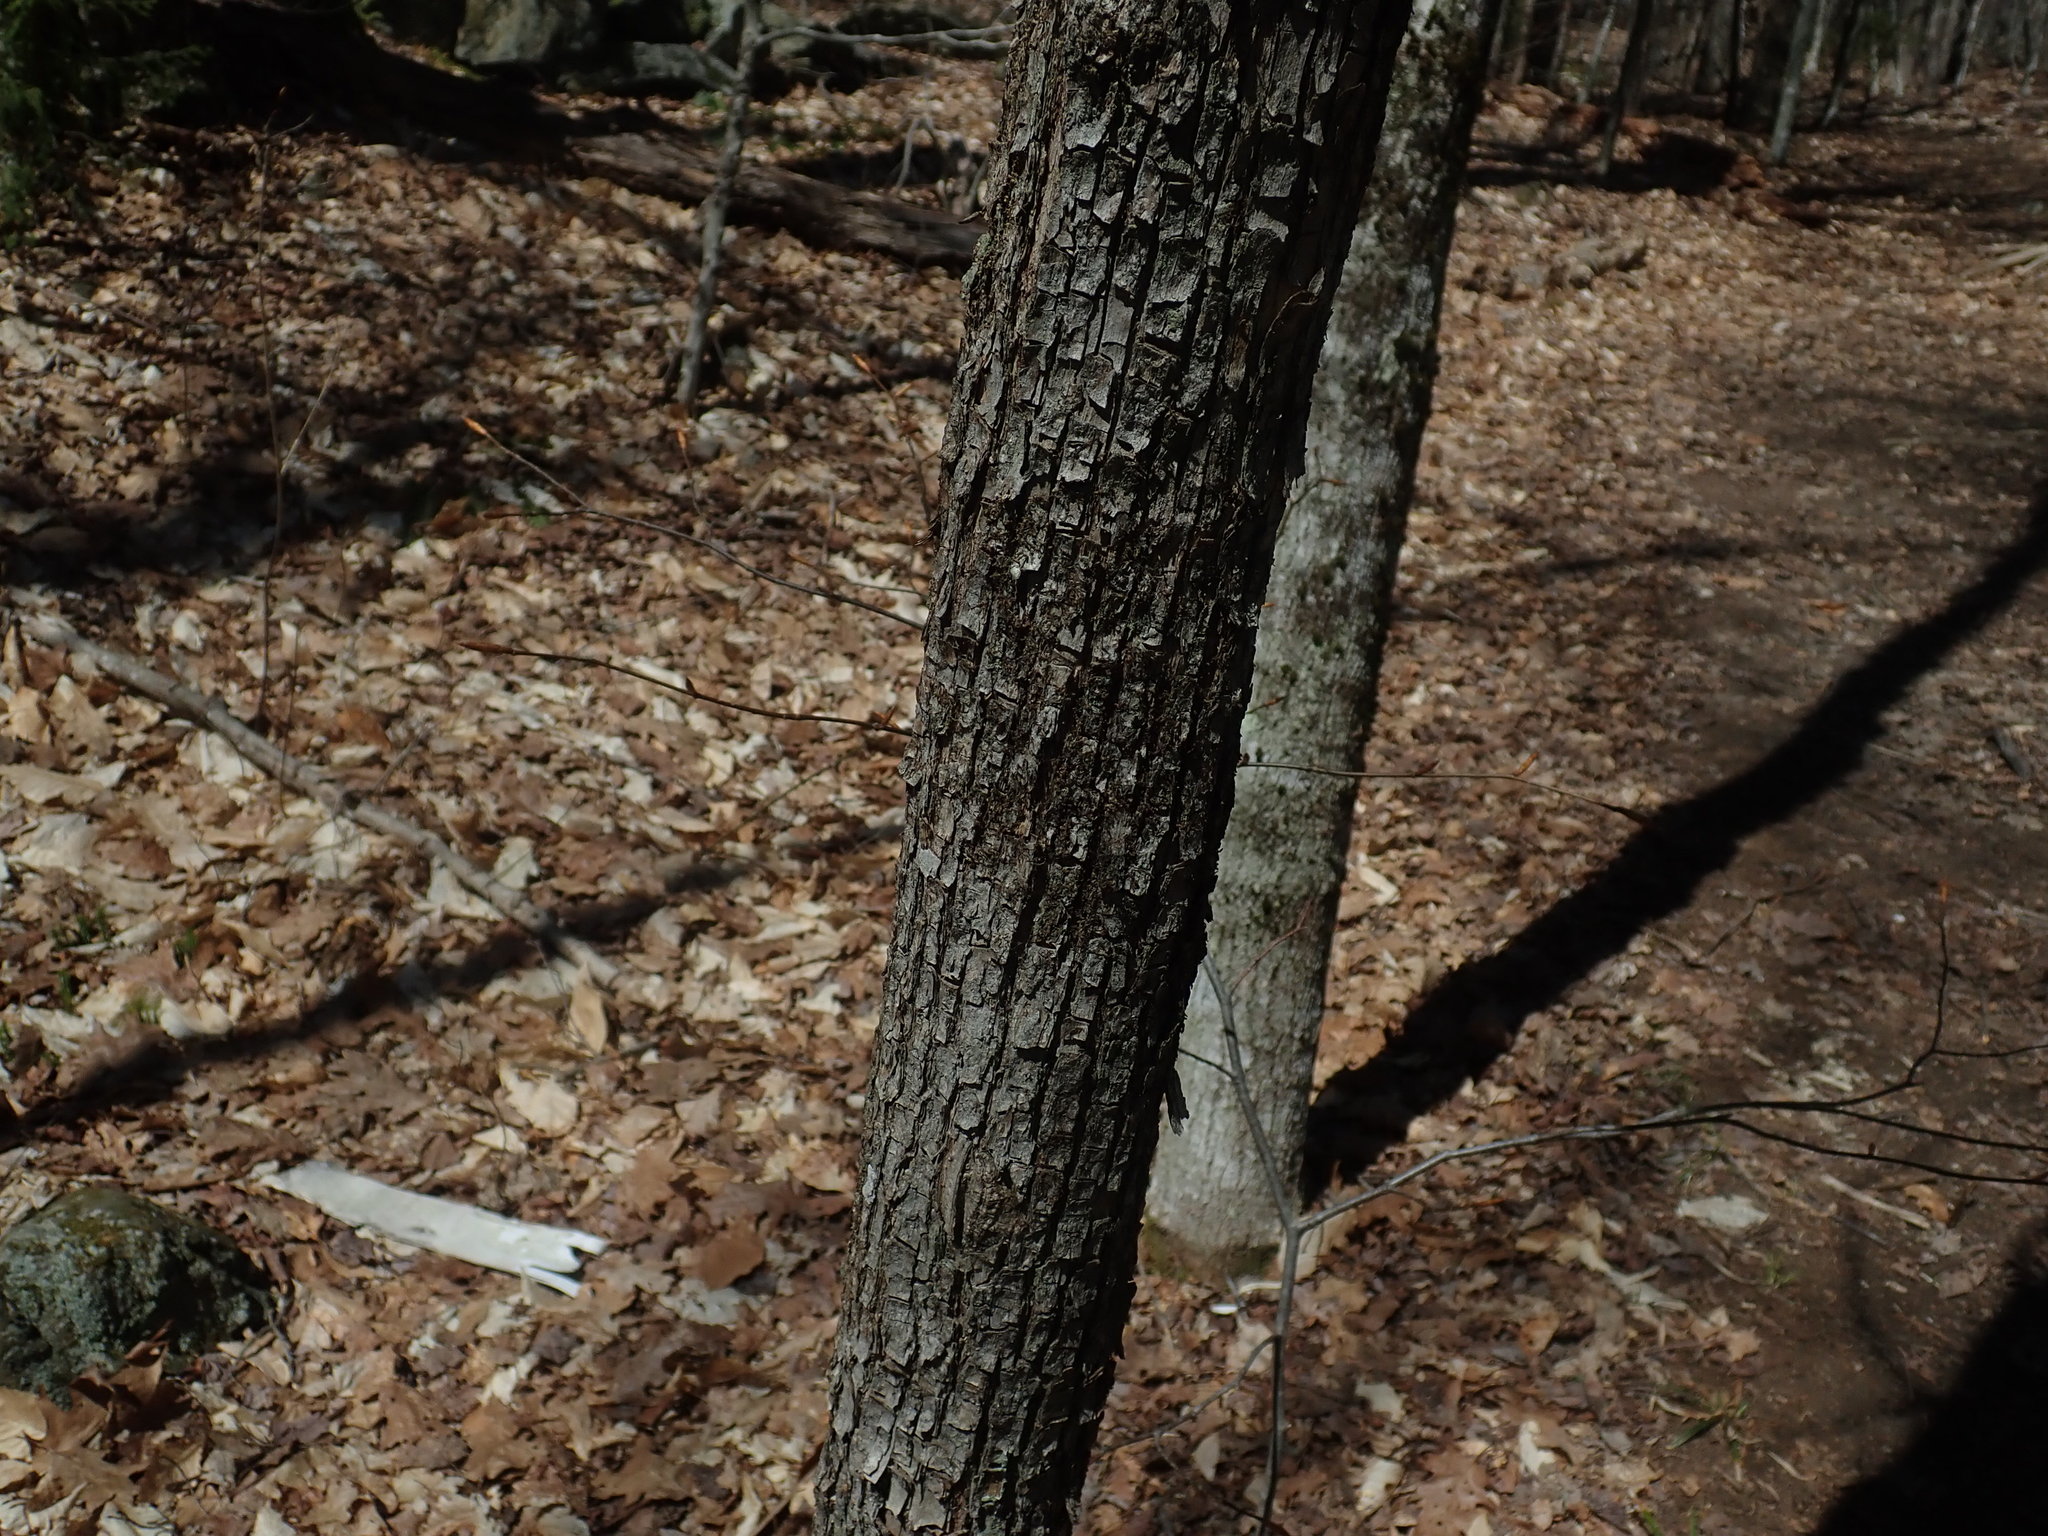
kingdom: Plantae
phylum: Tracheophyta
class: Magnoliopsida
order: Fagales
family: Betulaceae
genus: Ostrya
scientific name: Ostrya virginiana
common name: Ironwood
